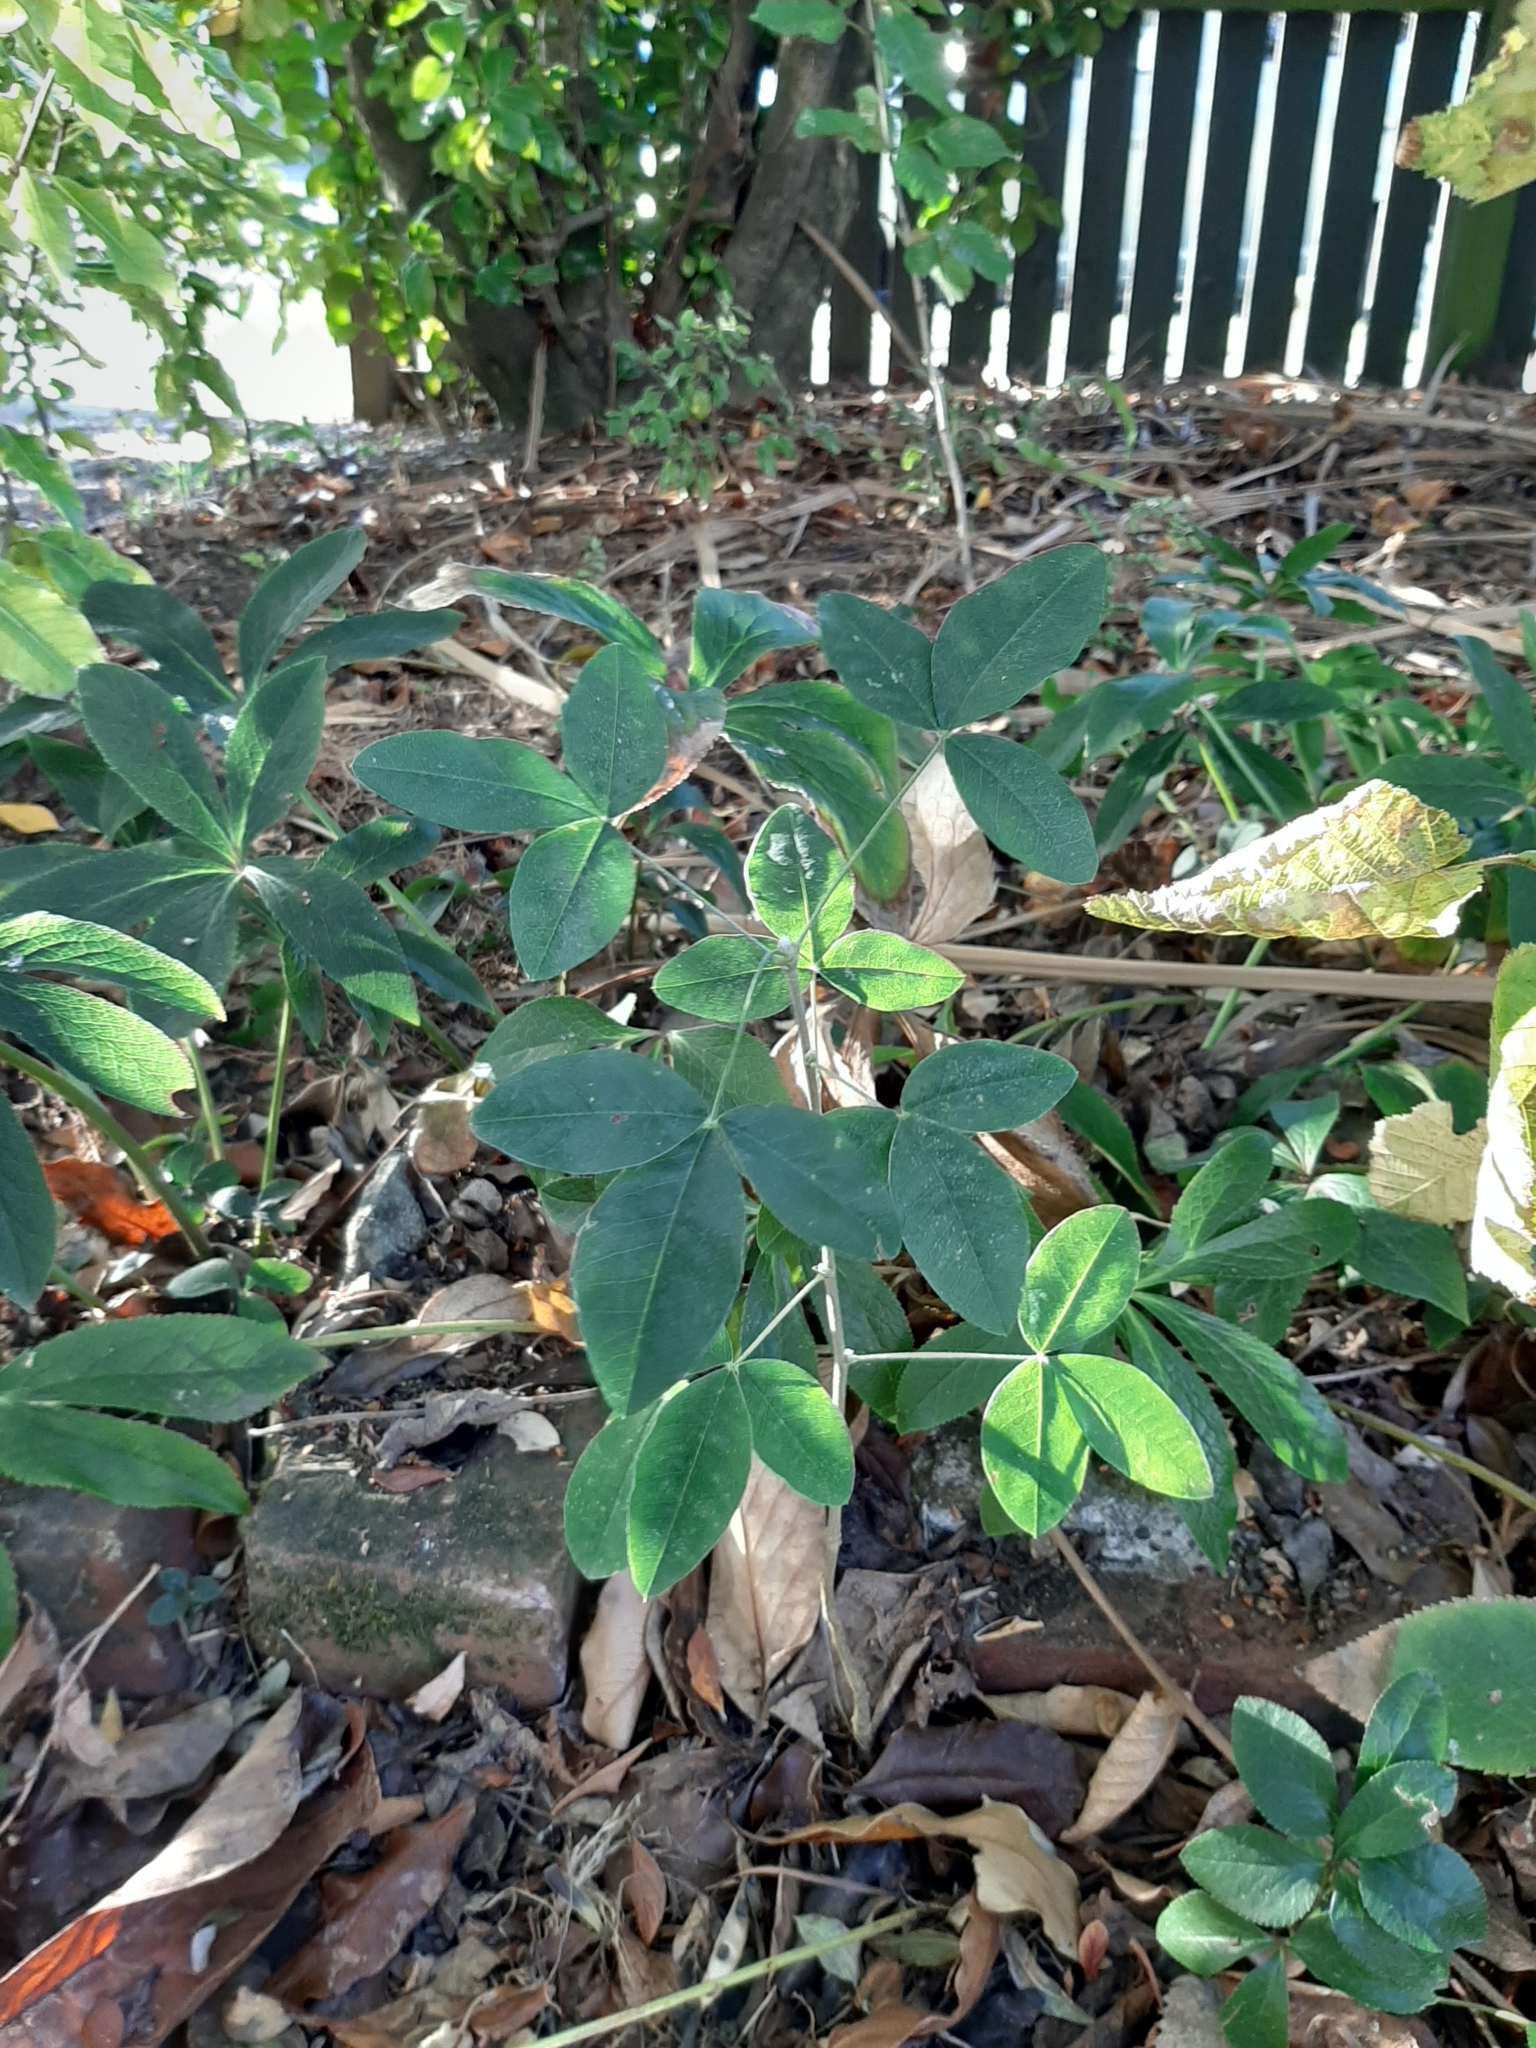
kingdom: Plantae
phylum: Tracheophyta
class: Magnoliopsida
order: Fabales
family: Fabaceae
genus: Laburnum
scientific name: Laburnum anagyroides
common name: Laburnum
